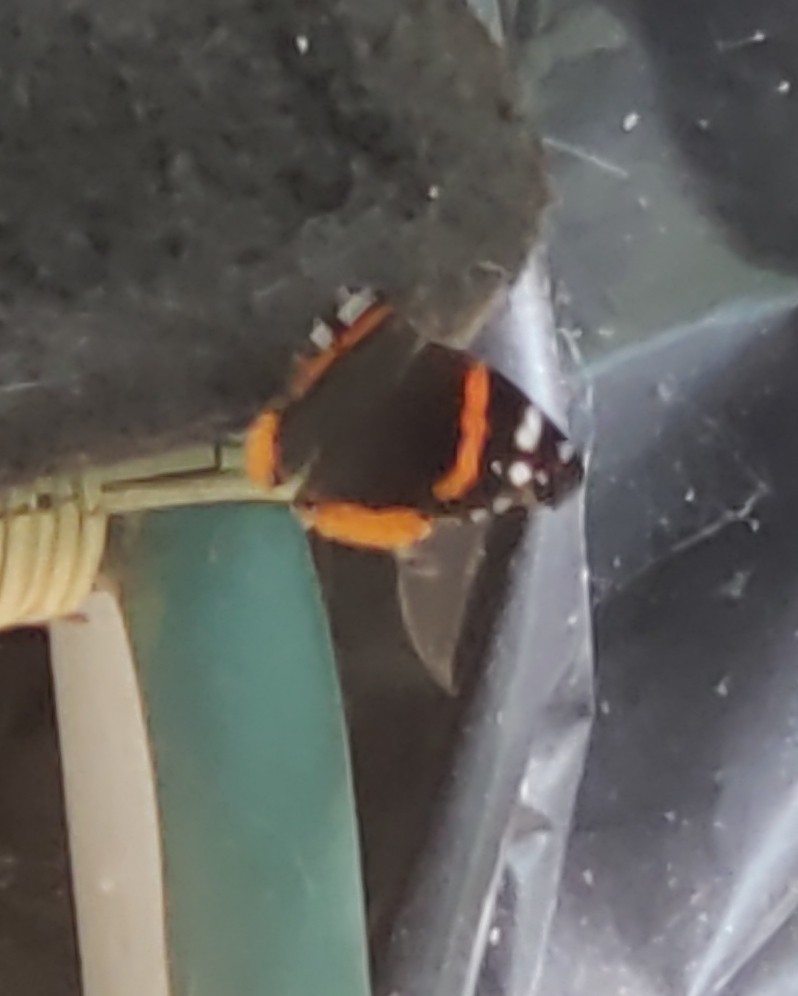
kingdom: Animalia
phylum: Arthropoda
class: Insecta
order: Lepidoptera
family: Nymphalidae
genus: Vanessa
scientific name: Vanessa atalanta
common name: Red admiral
